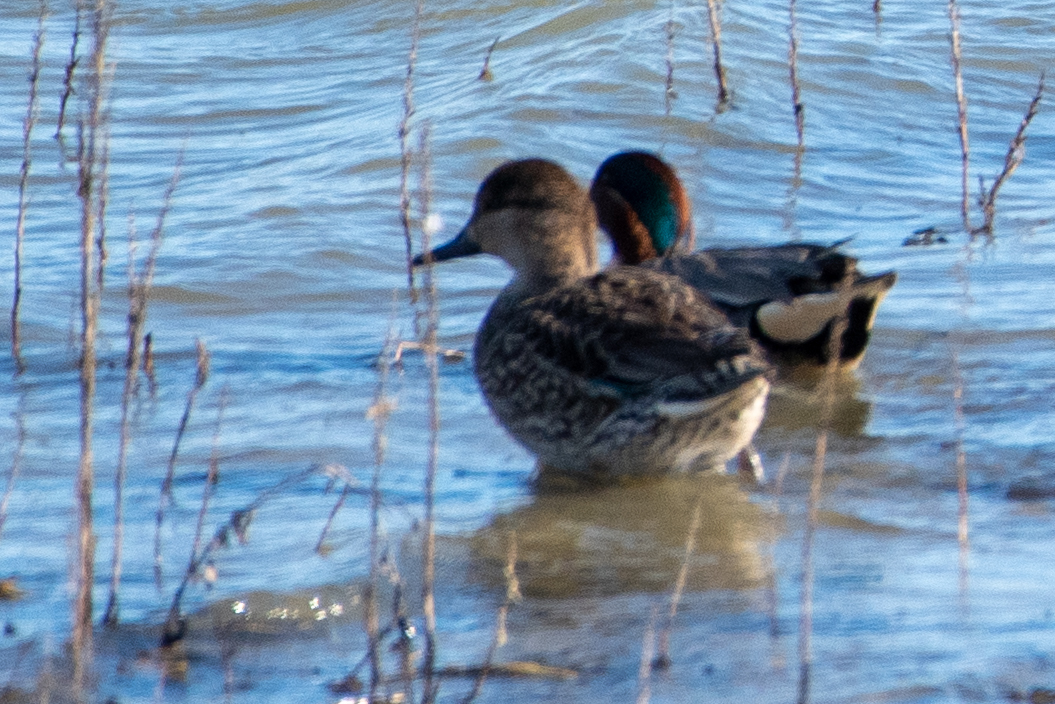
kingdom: Animalia
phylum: Chordata
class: Aves
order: Anseriformes
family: Anatidae
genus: Anas
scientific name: Anas crecca
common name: Eurasian teal
